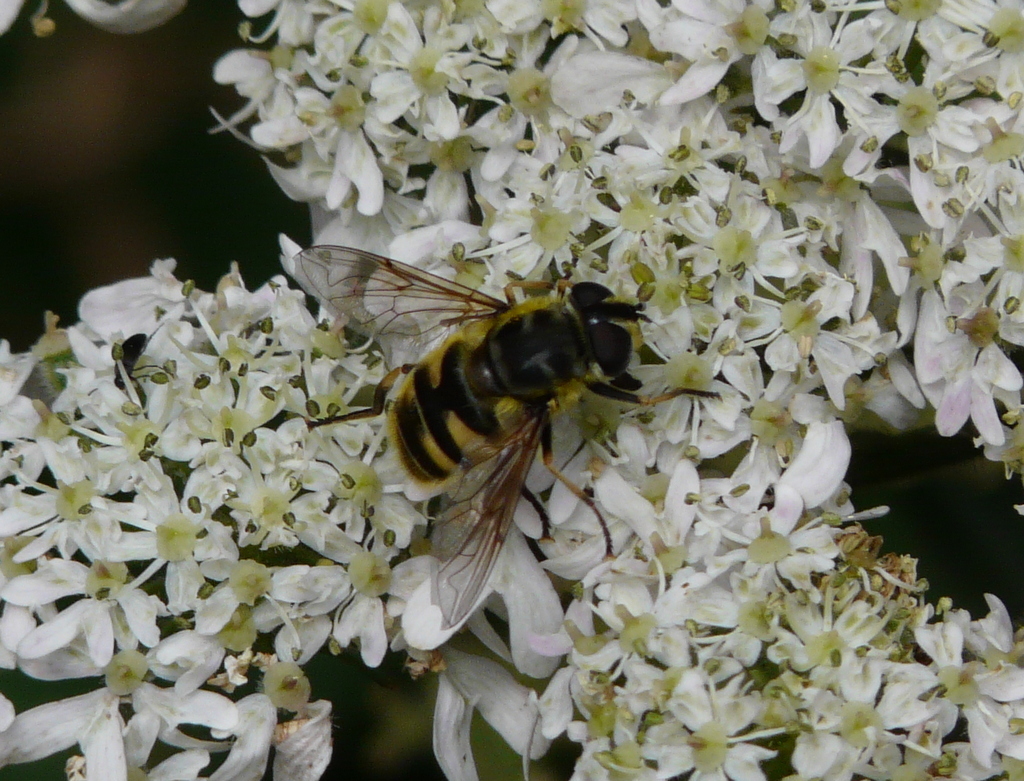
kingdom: Animalia
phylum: Arthropoda
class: Insecta
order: Diptera
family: Syrphidae
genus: Myathropa
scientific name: Myathropa florea
